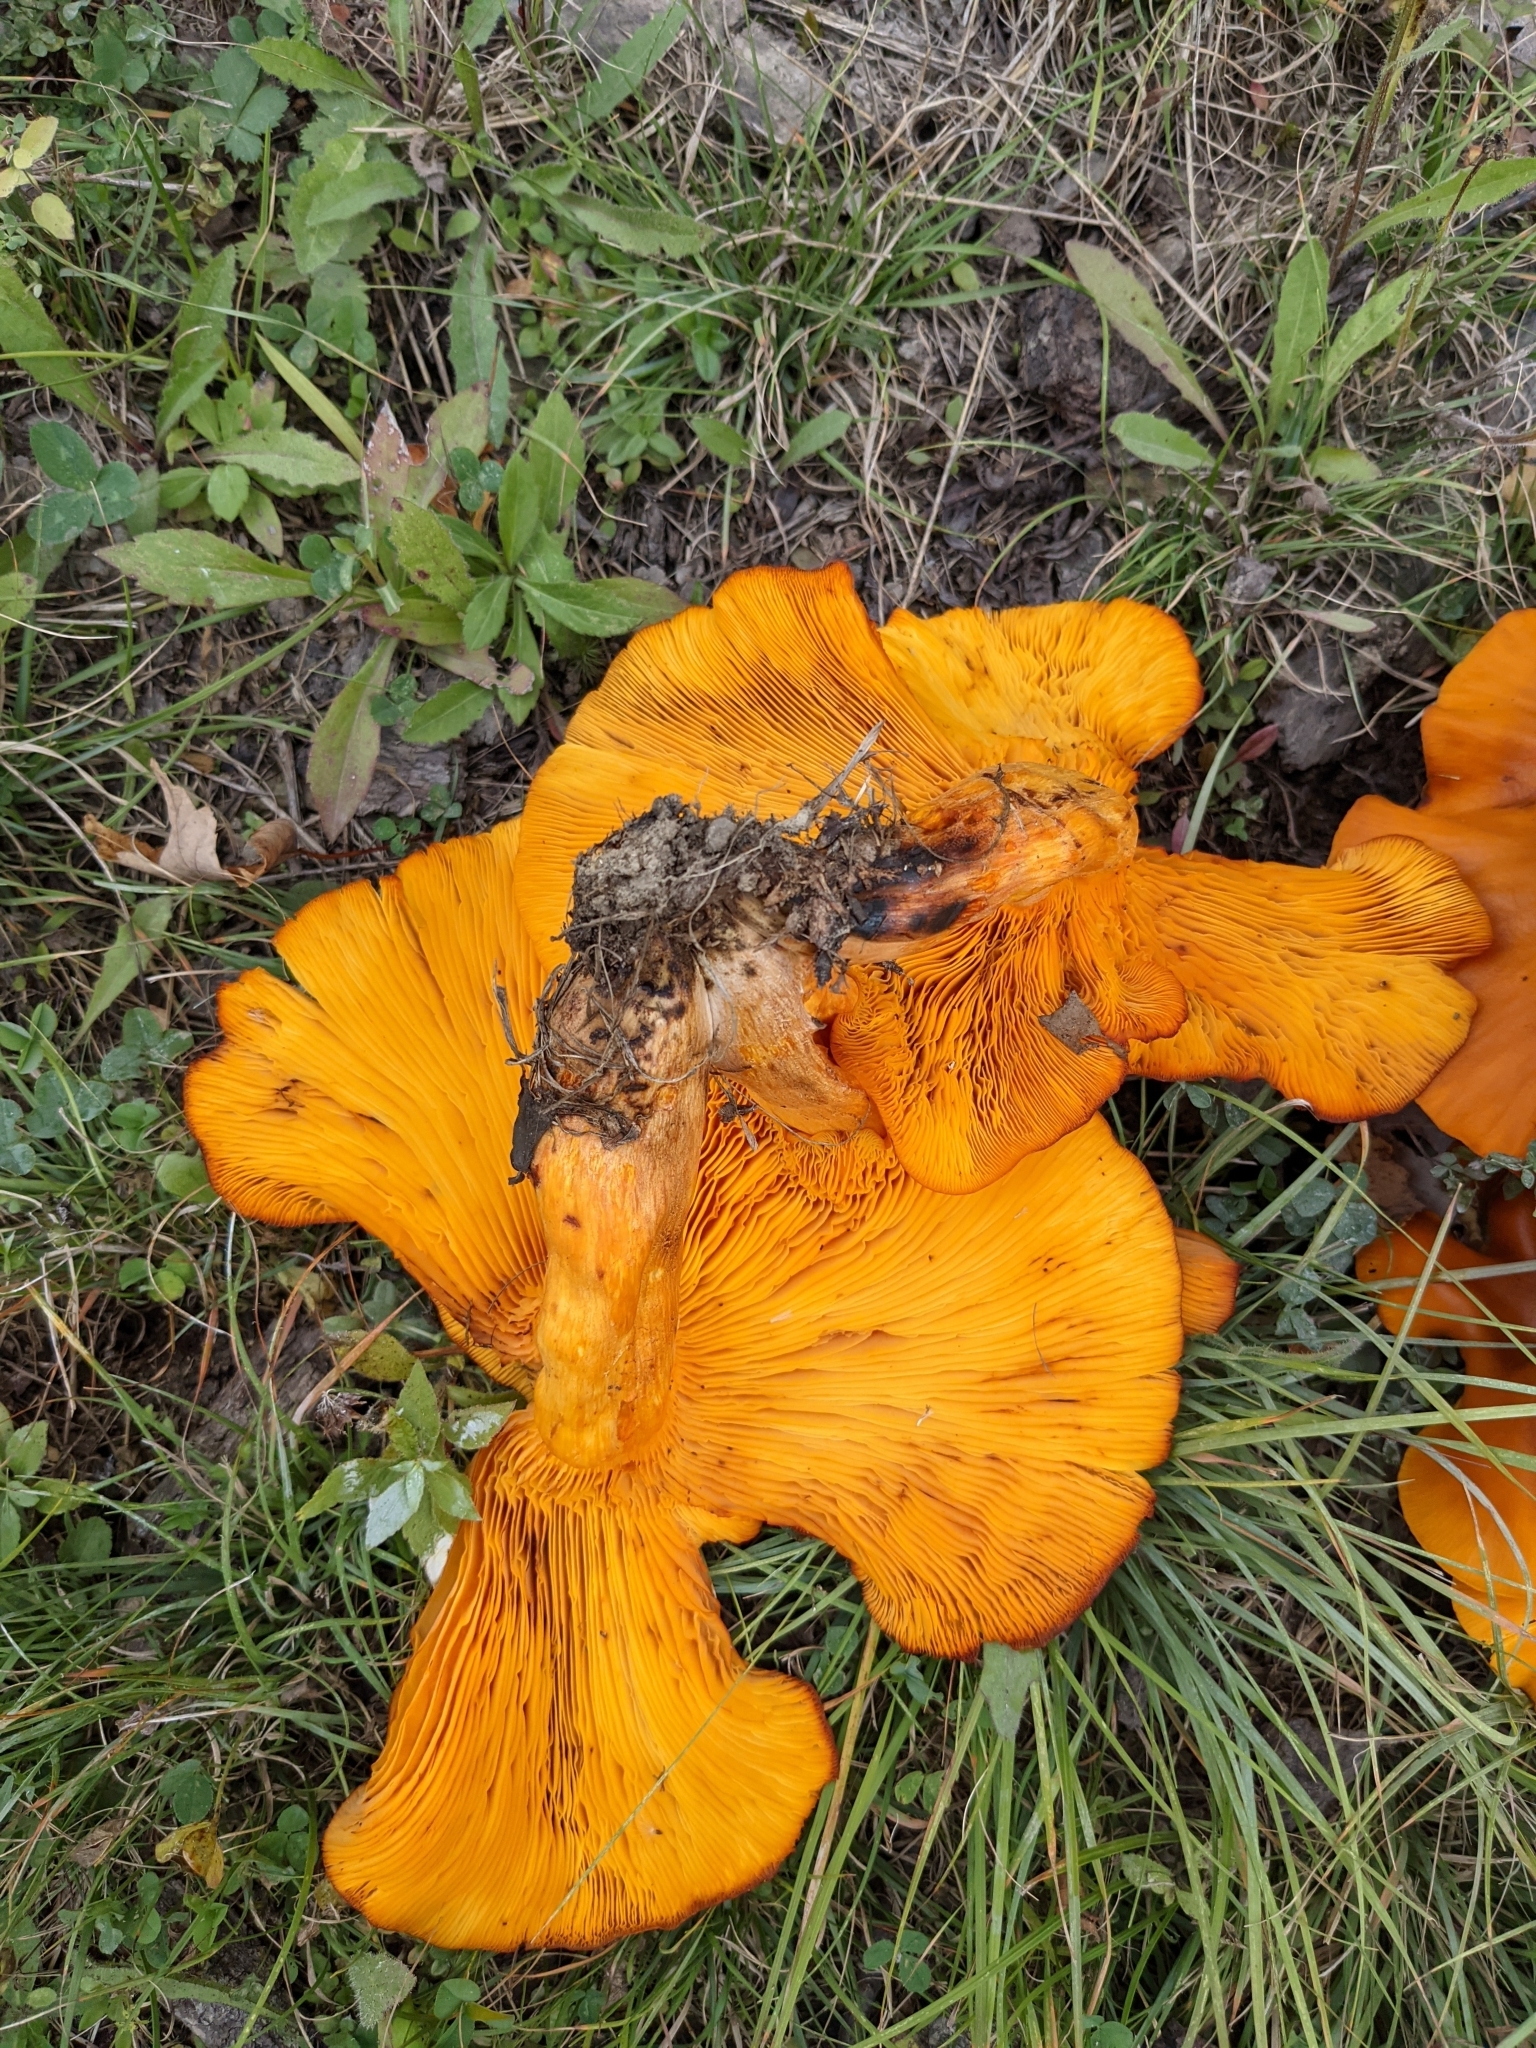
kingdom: Fungi
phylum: Basidiomycota
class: Agaricomycetes
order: Agaricales
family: Omphalotaceae
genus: Omphalotus
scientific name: Omphalotus illudens
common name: Jack o lantern
